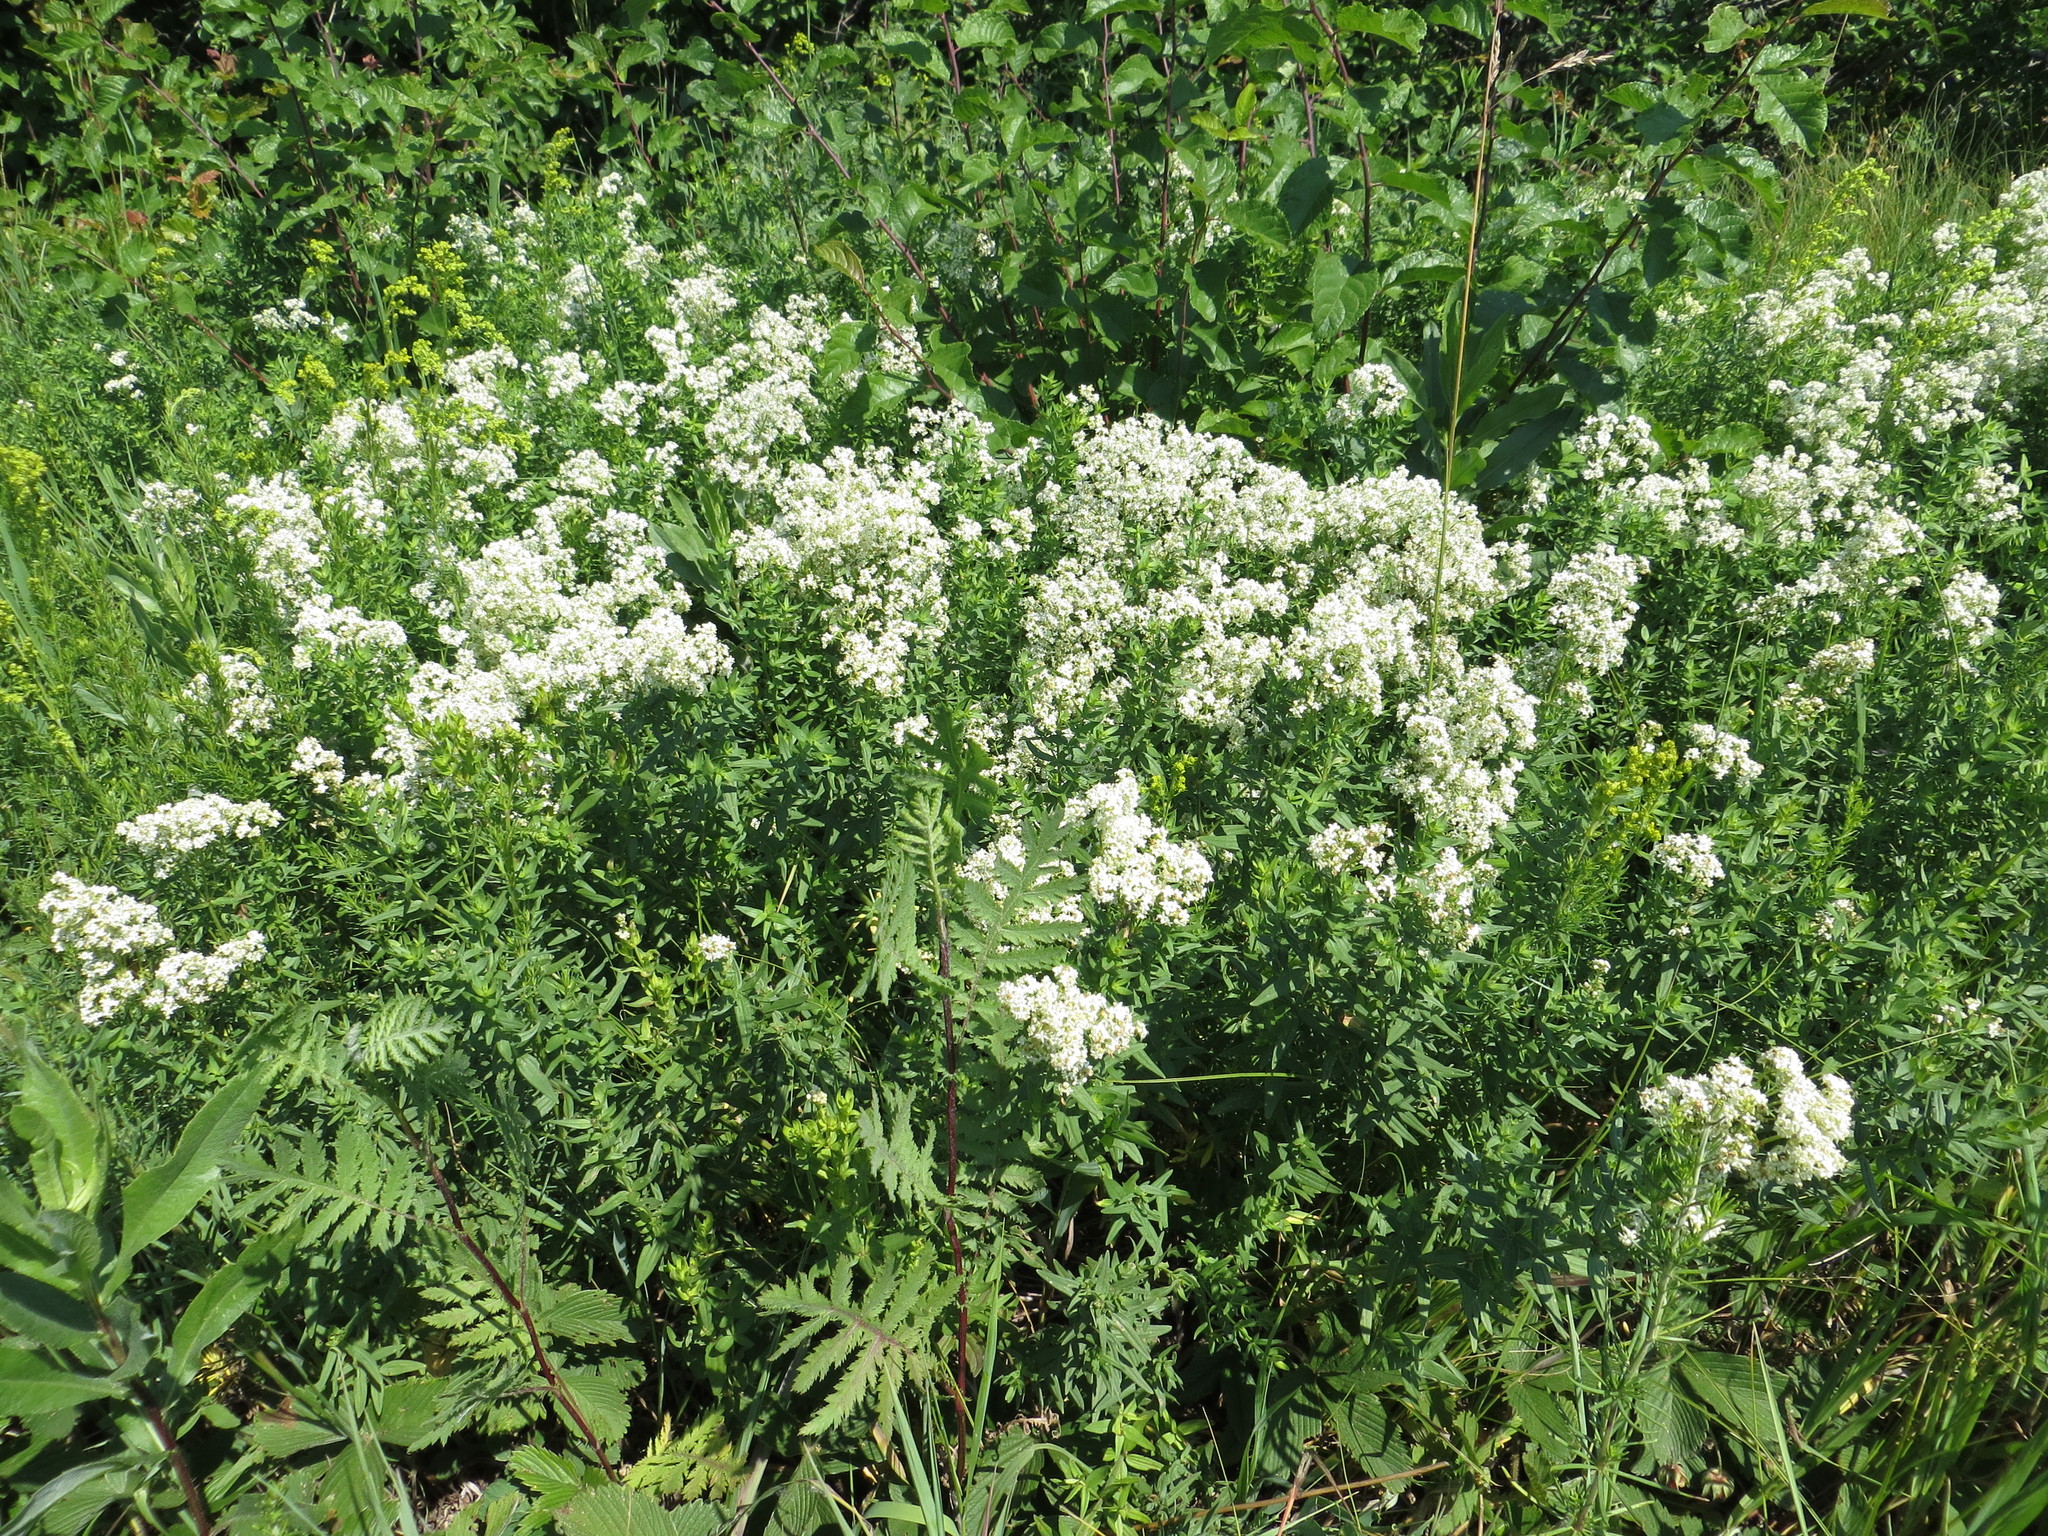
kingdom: Plantae
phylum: Tracheophyta
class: Magnoliopsida
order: Gentianales
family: Rubiaceae
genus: Galium
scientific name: Galium boreale
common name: Northern bedstraw
